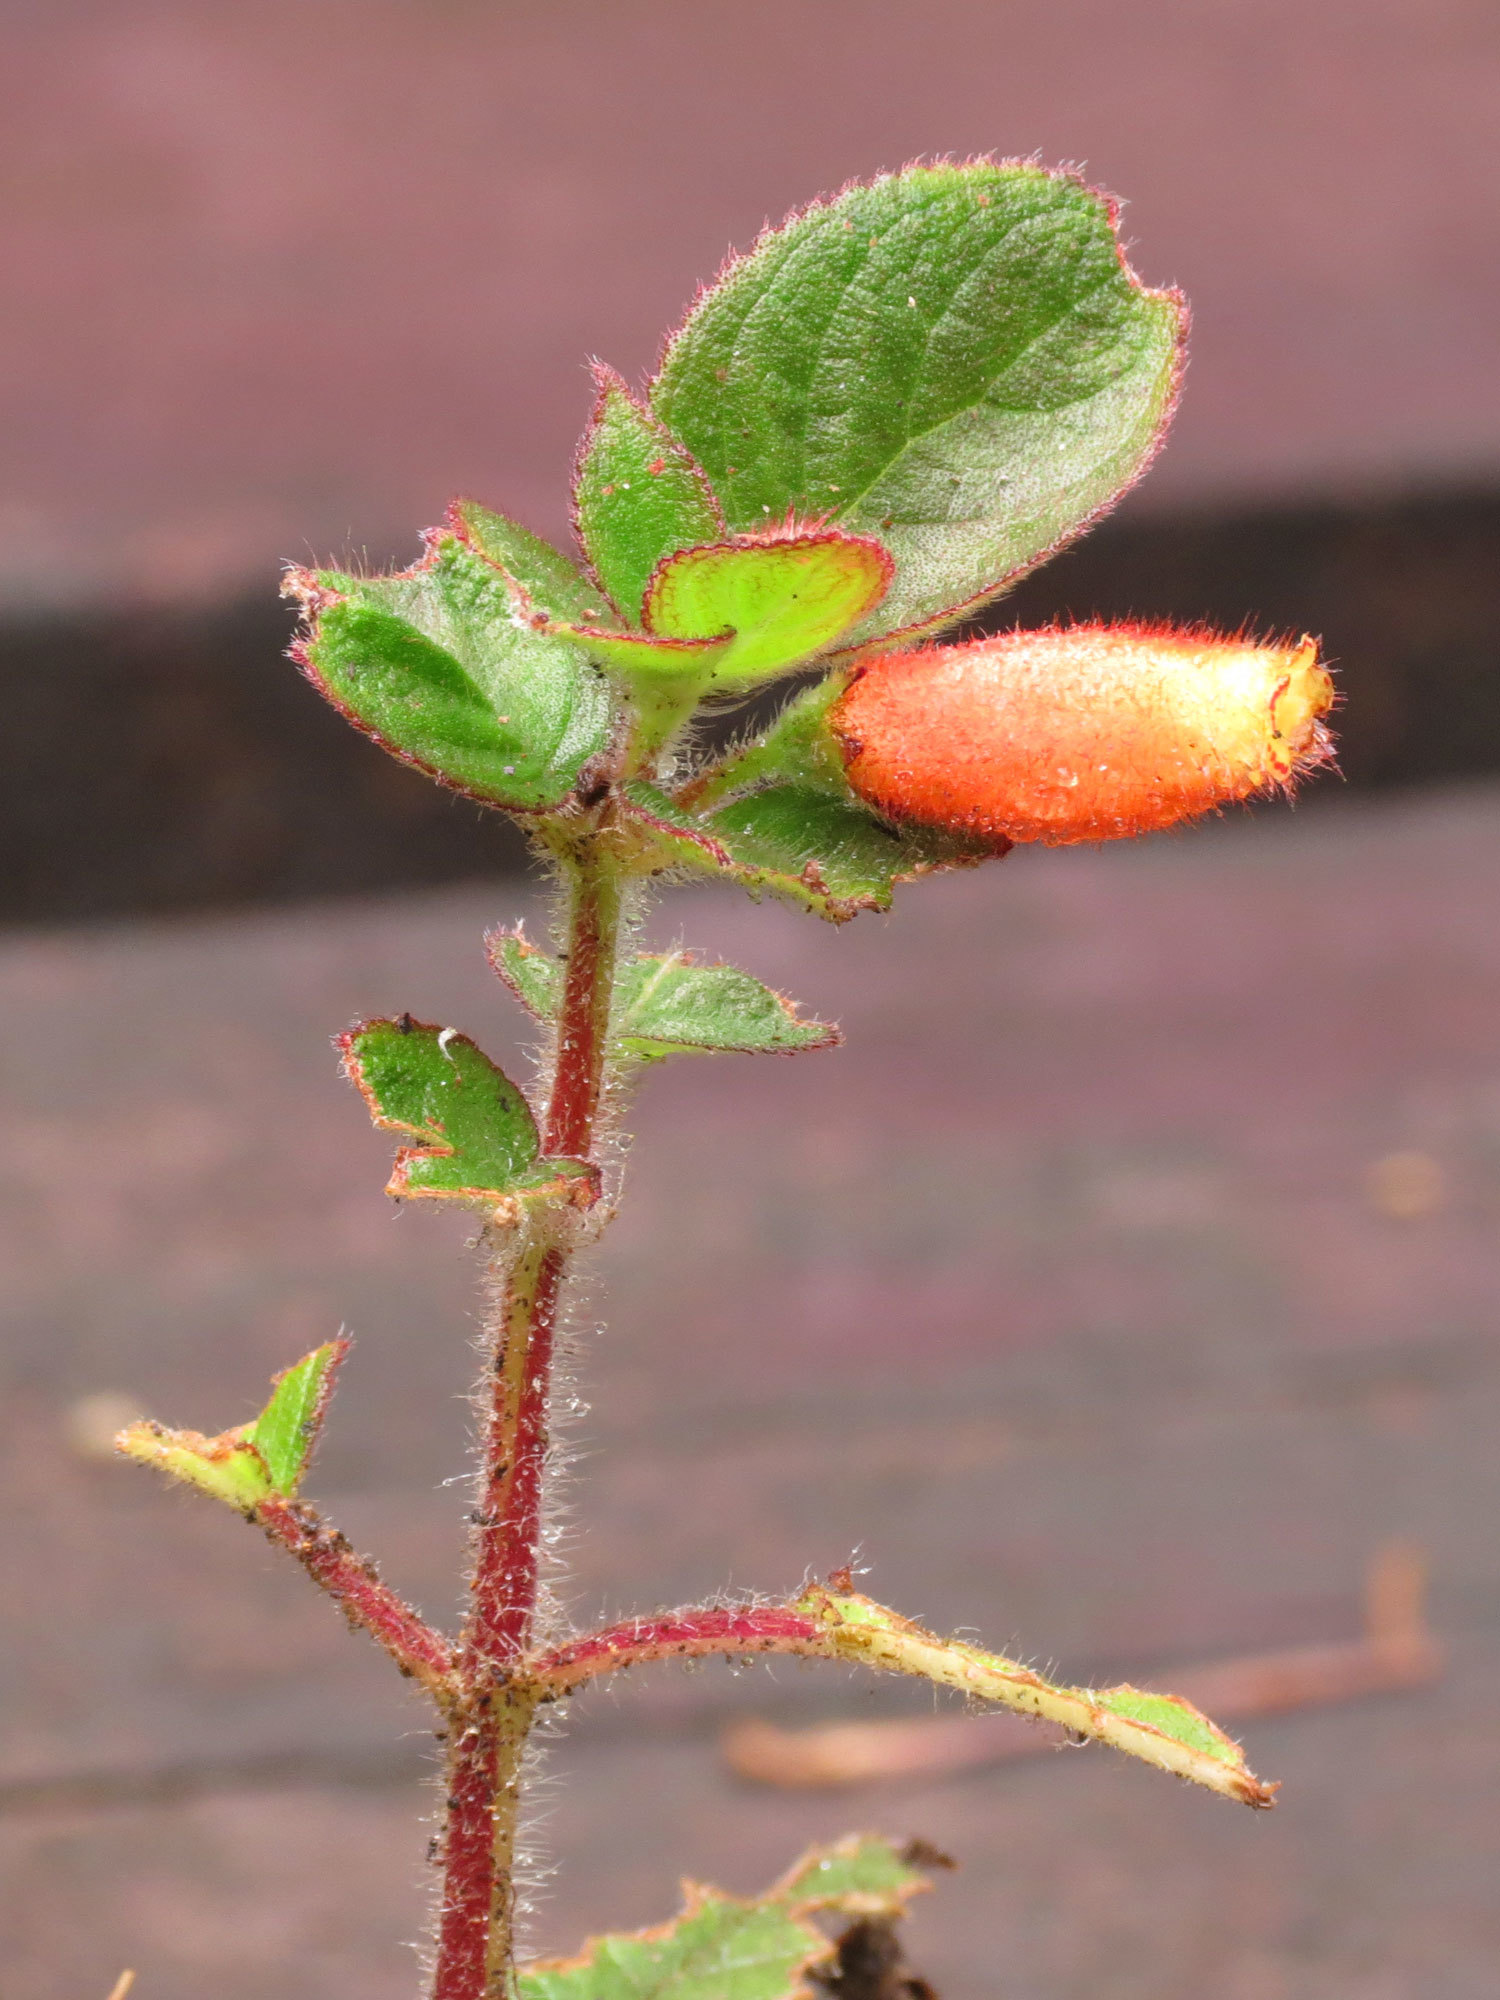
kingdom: Plantae
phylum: Tracheophyta
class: Magnoliopsida
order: Lamiales
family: Gesneriaceae
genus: Kohleria
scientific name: Kohleria tubiflora
